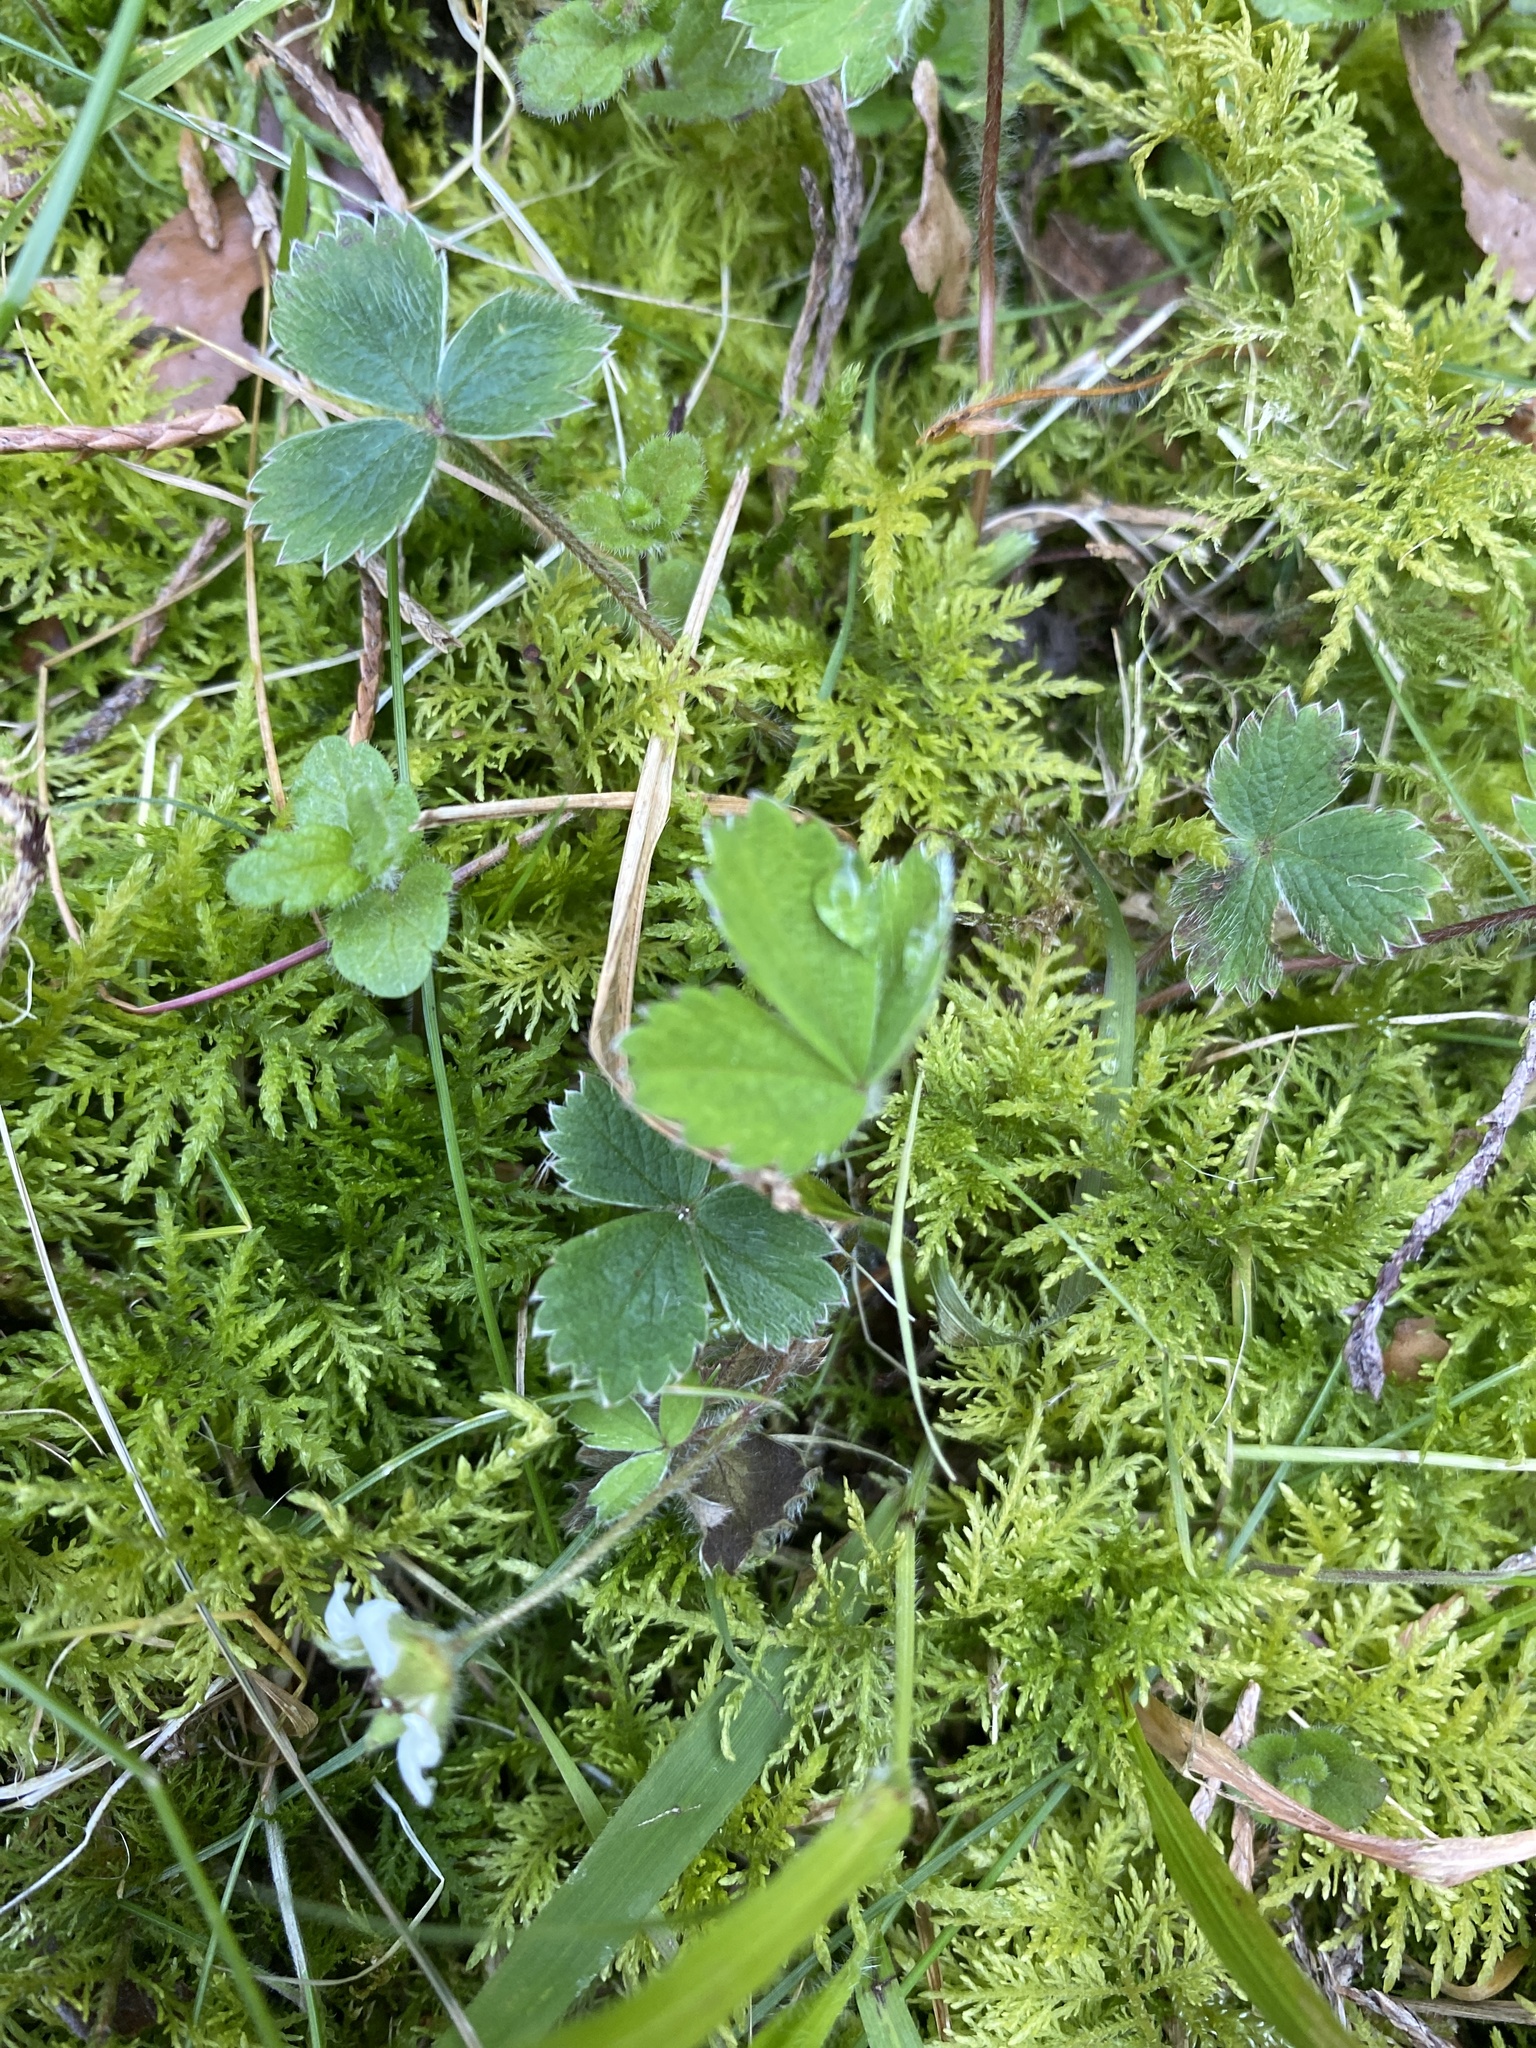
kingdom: Plantae
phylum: Tracheophyta
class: Magnoliopsida
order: Rosales
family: Rosaceae
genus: Potentilla
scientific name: Potentilla sterilis
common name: Barren strawberry
